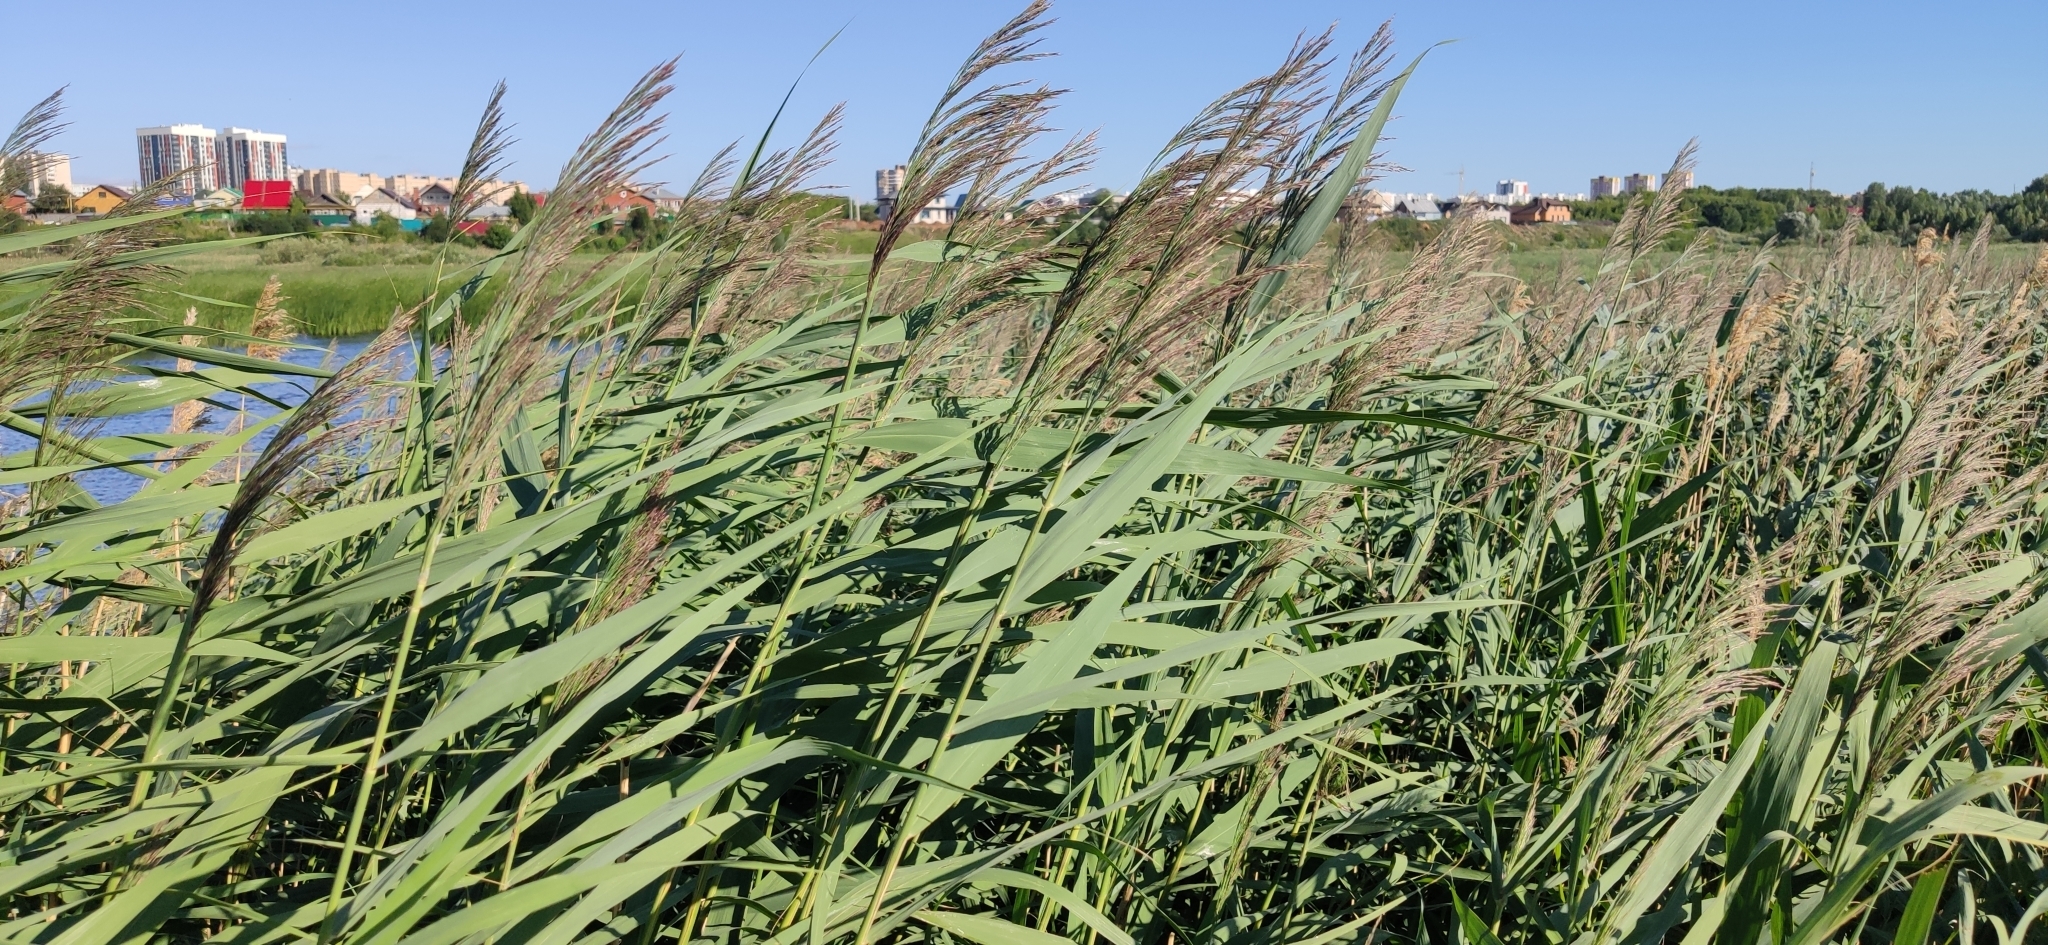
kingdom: Plantae
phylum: Tracheophyta
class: Liliopsida
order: Poales
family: Poaceae
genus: Phragmites
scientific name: Phragmites australis
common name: Common reed
